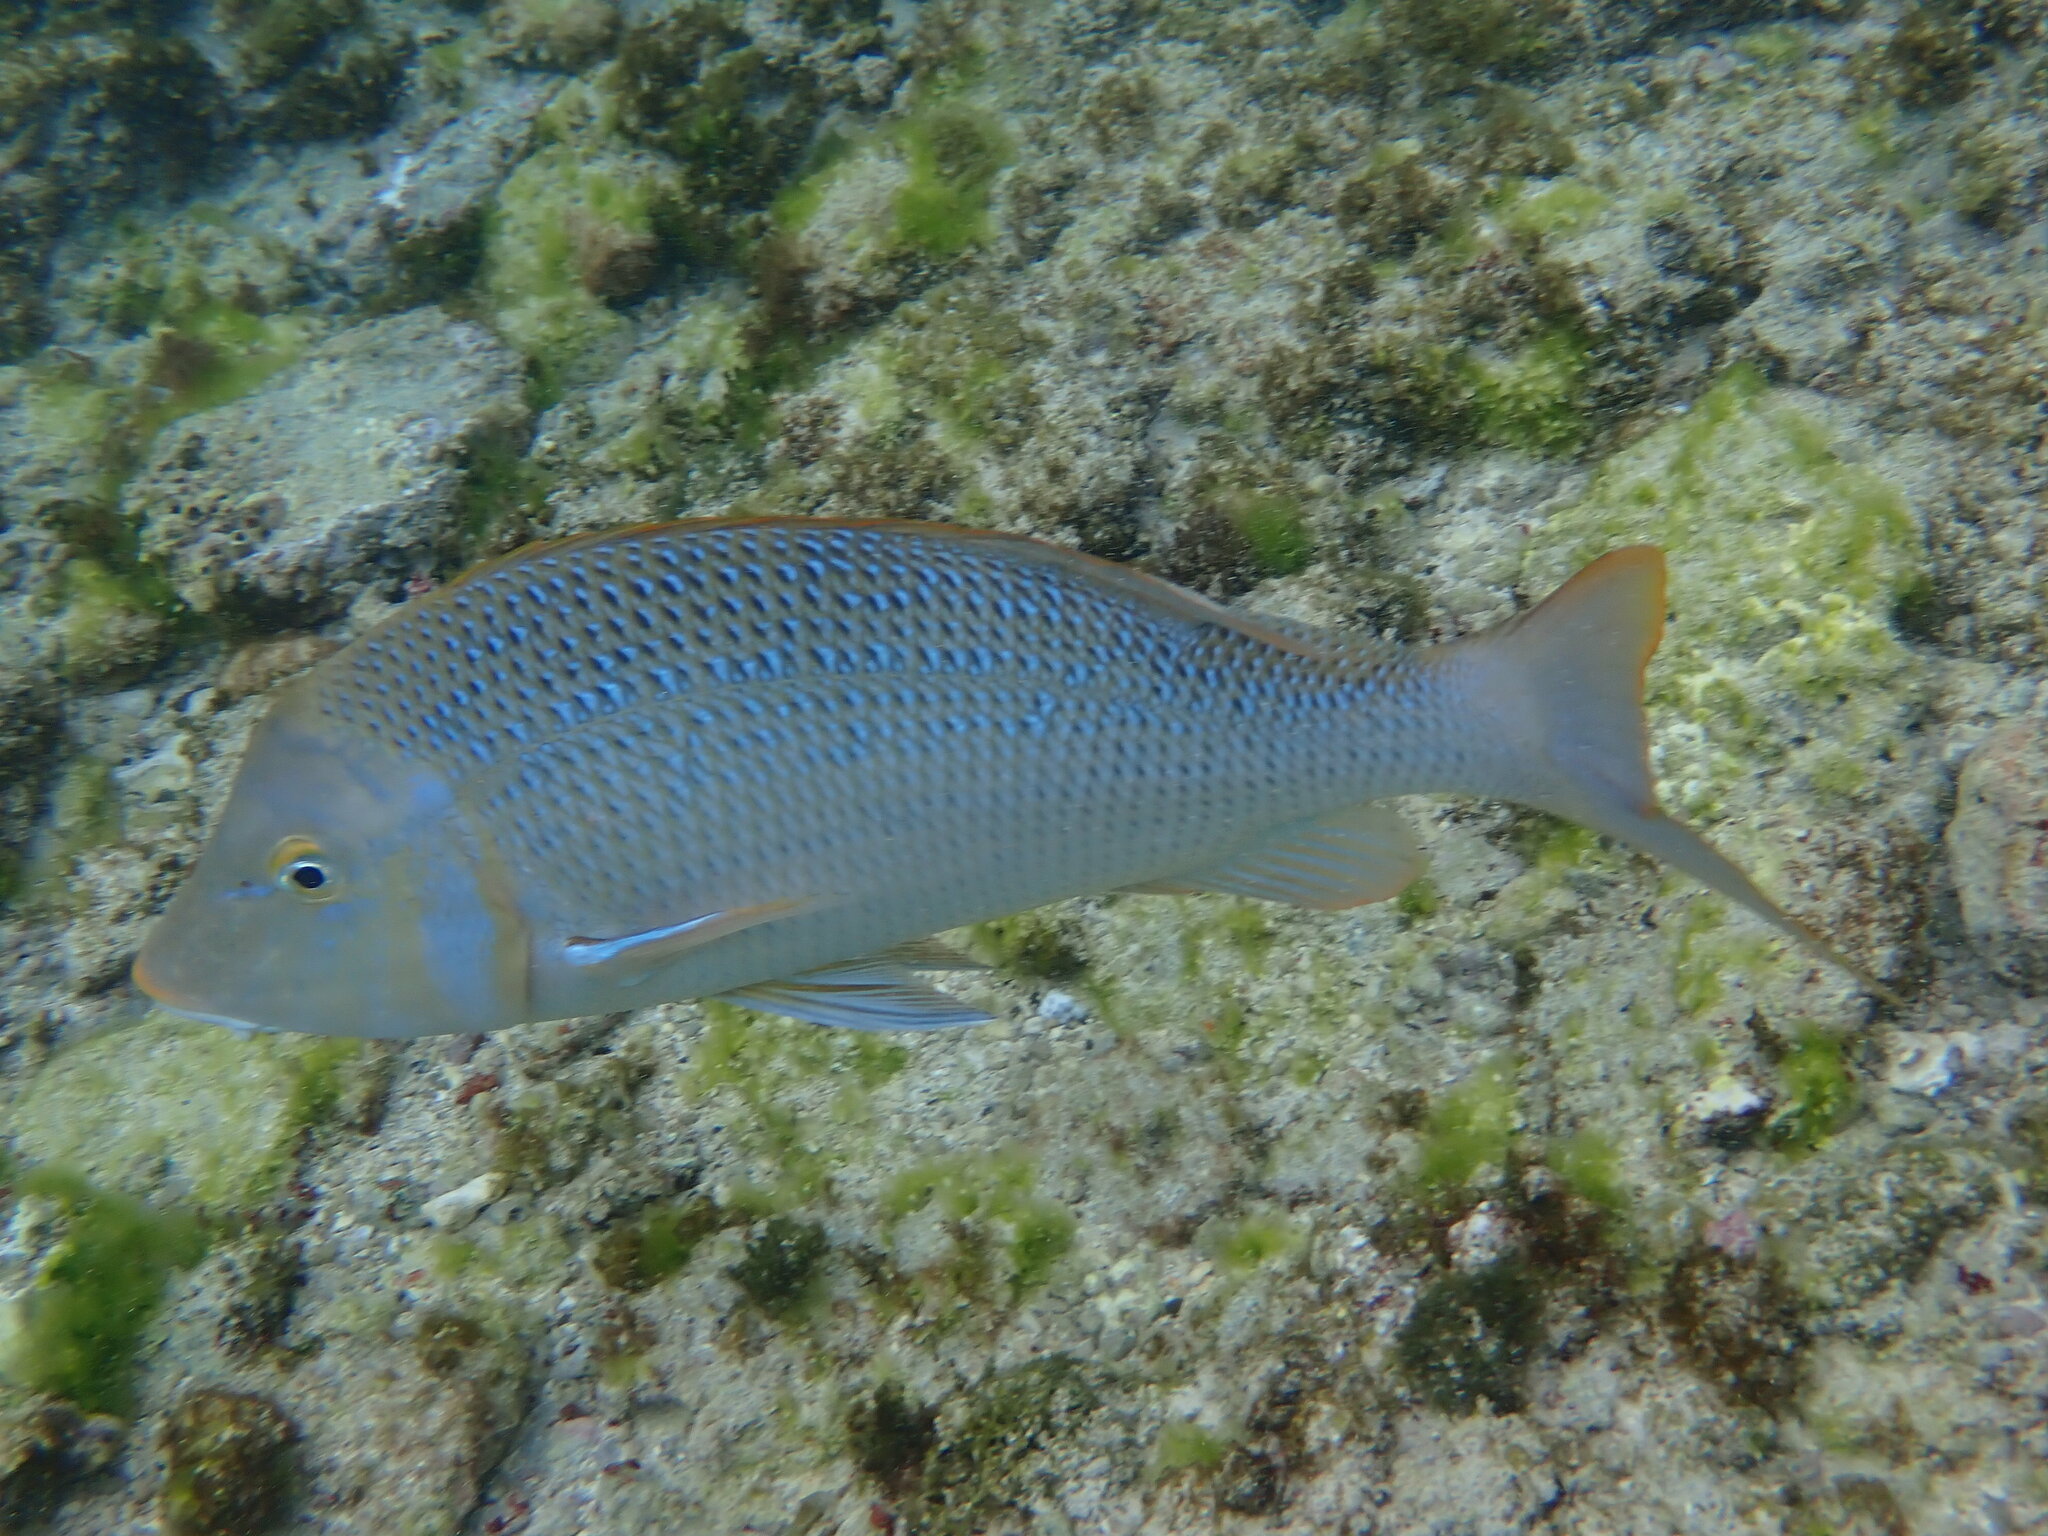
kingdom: Animalia
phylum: Chordata
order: Perciformes
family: Lethrinidae
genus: Lethrinus
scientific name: Lethrinus nebulosus
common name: Spangled emperor
